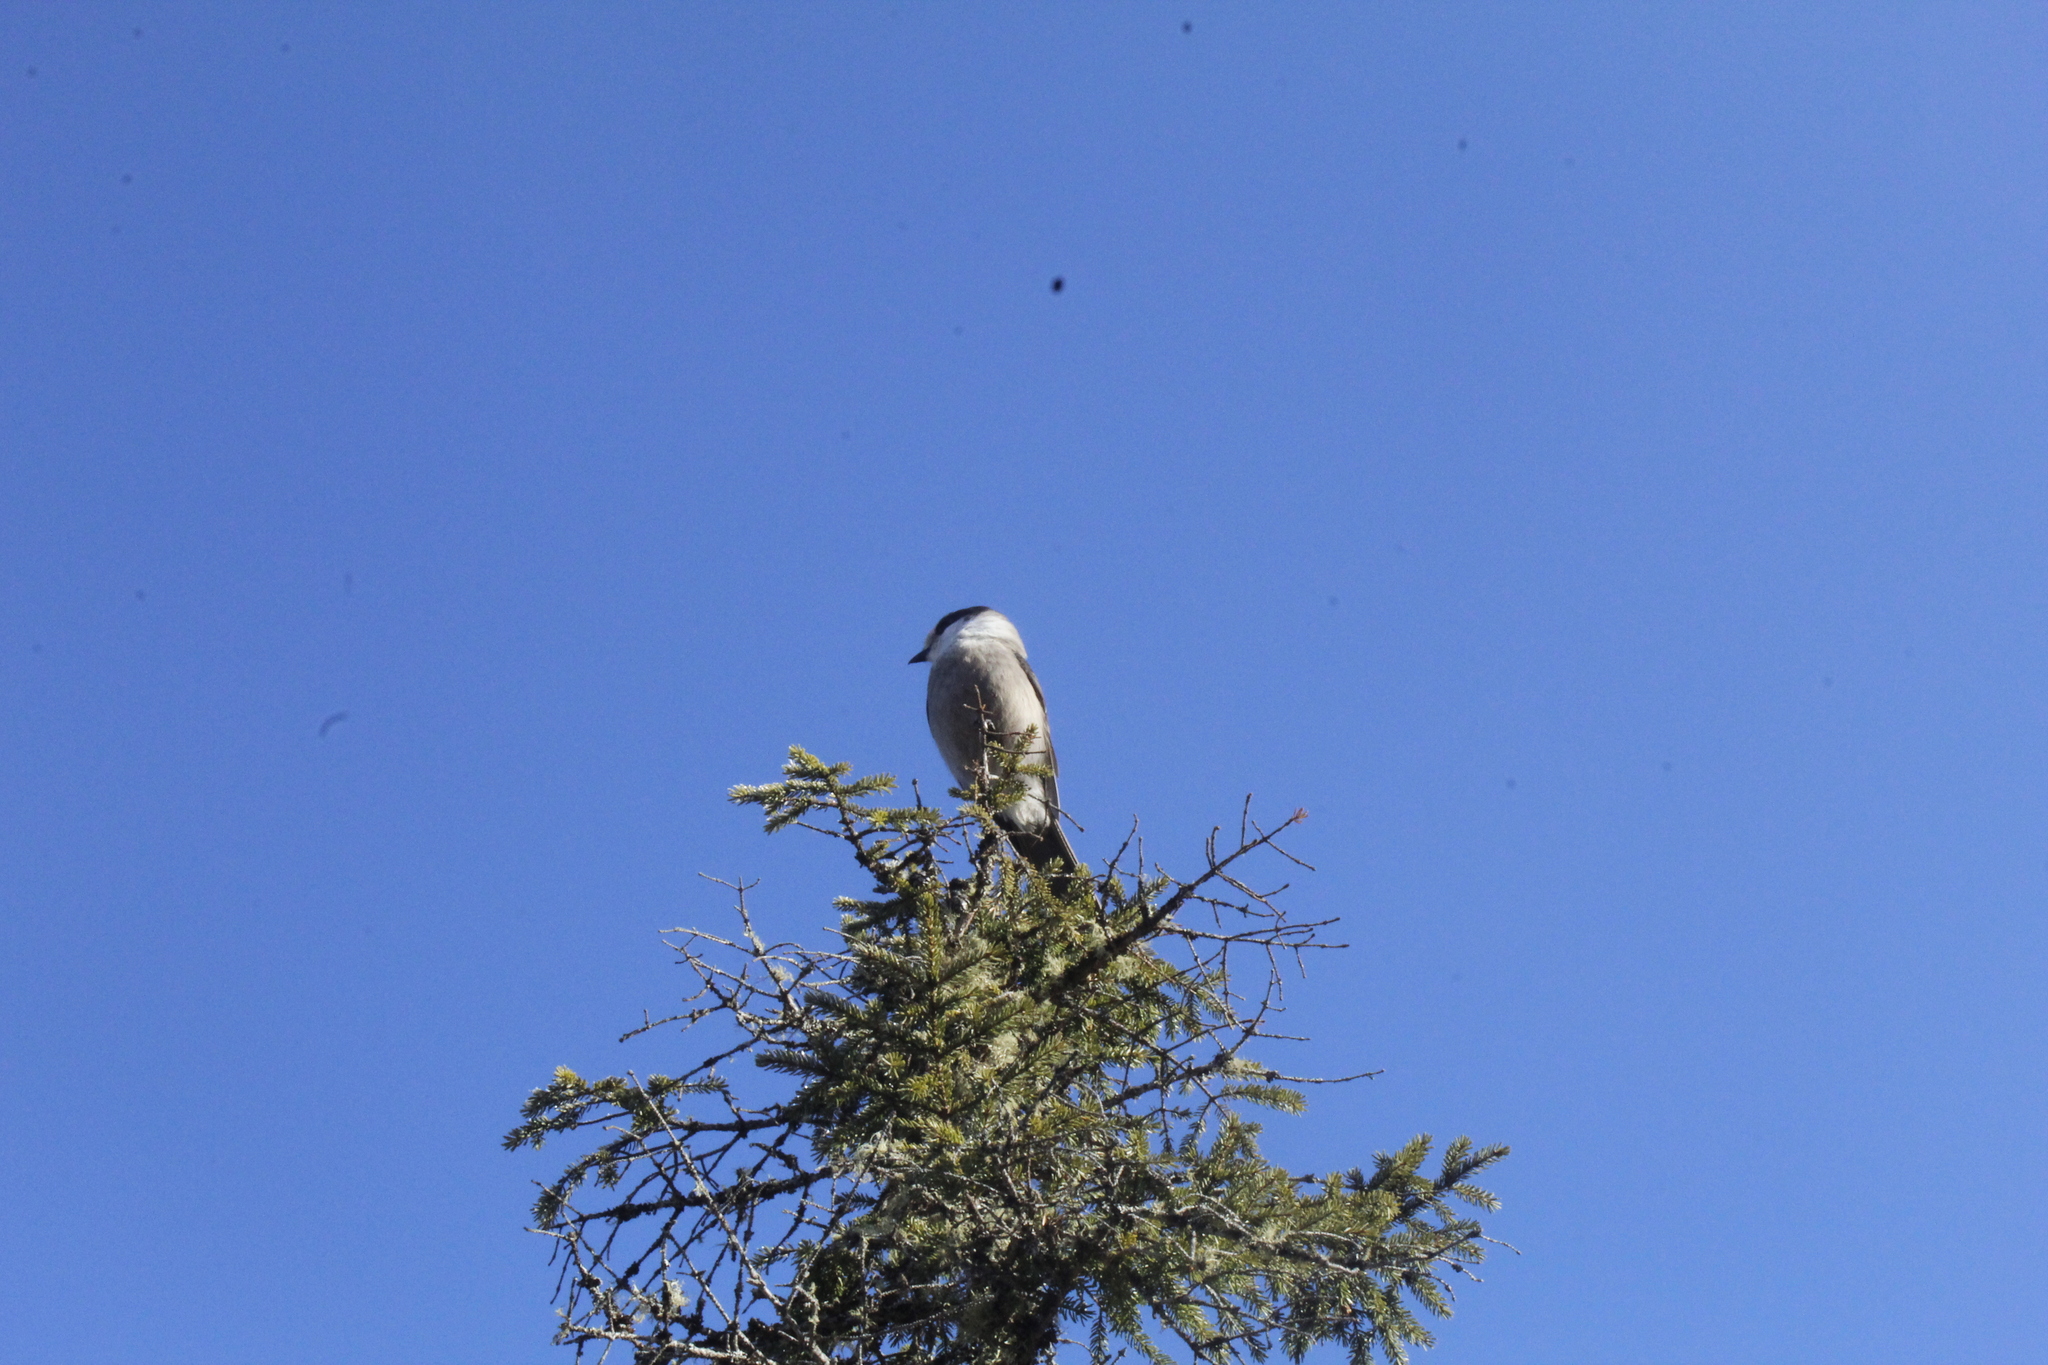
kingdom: Animalia
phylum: Chordata
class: Aves
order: Passeriformes
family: Corvidae
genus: Perisoreus
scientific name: Perisoreus canadensis
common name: Gray jay
